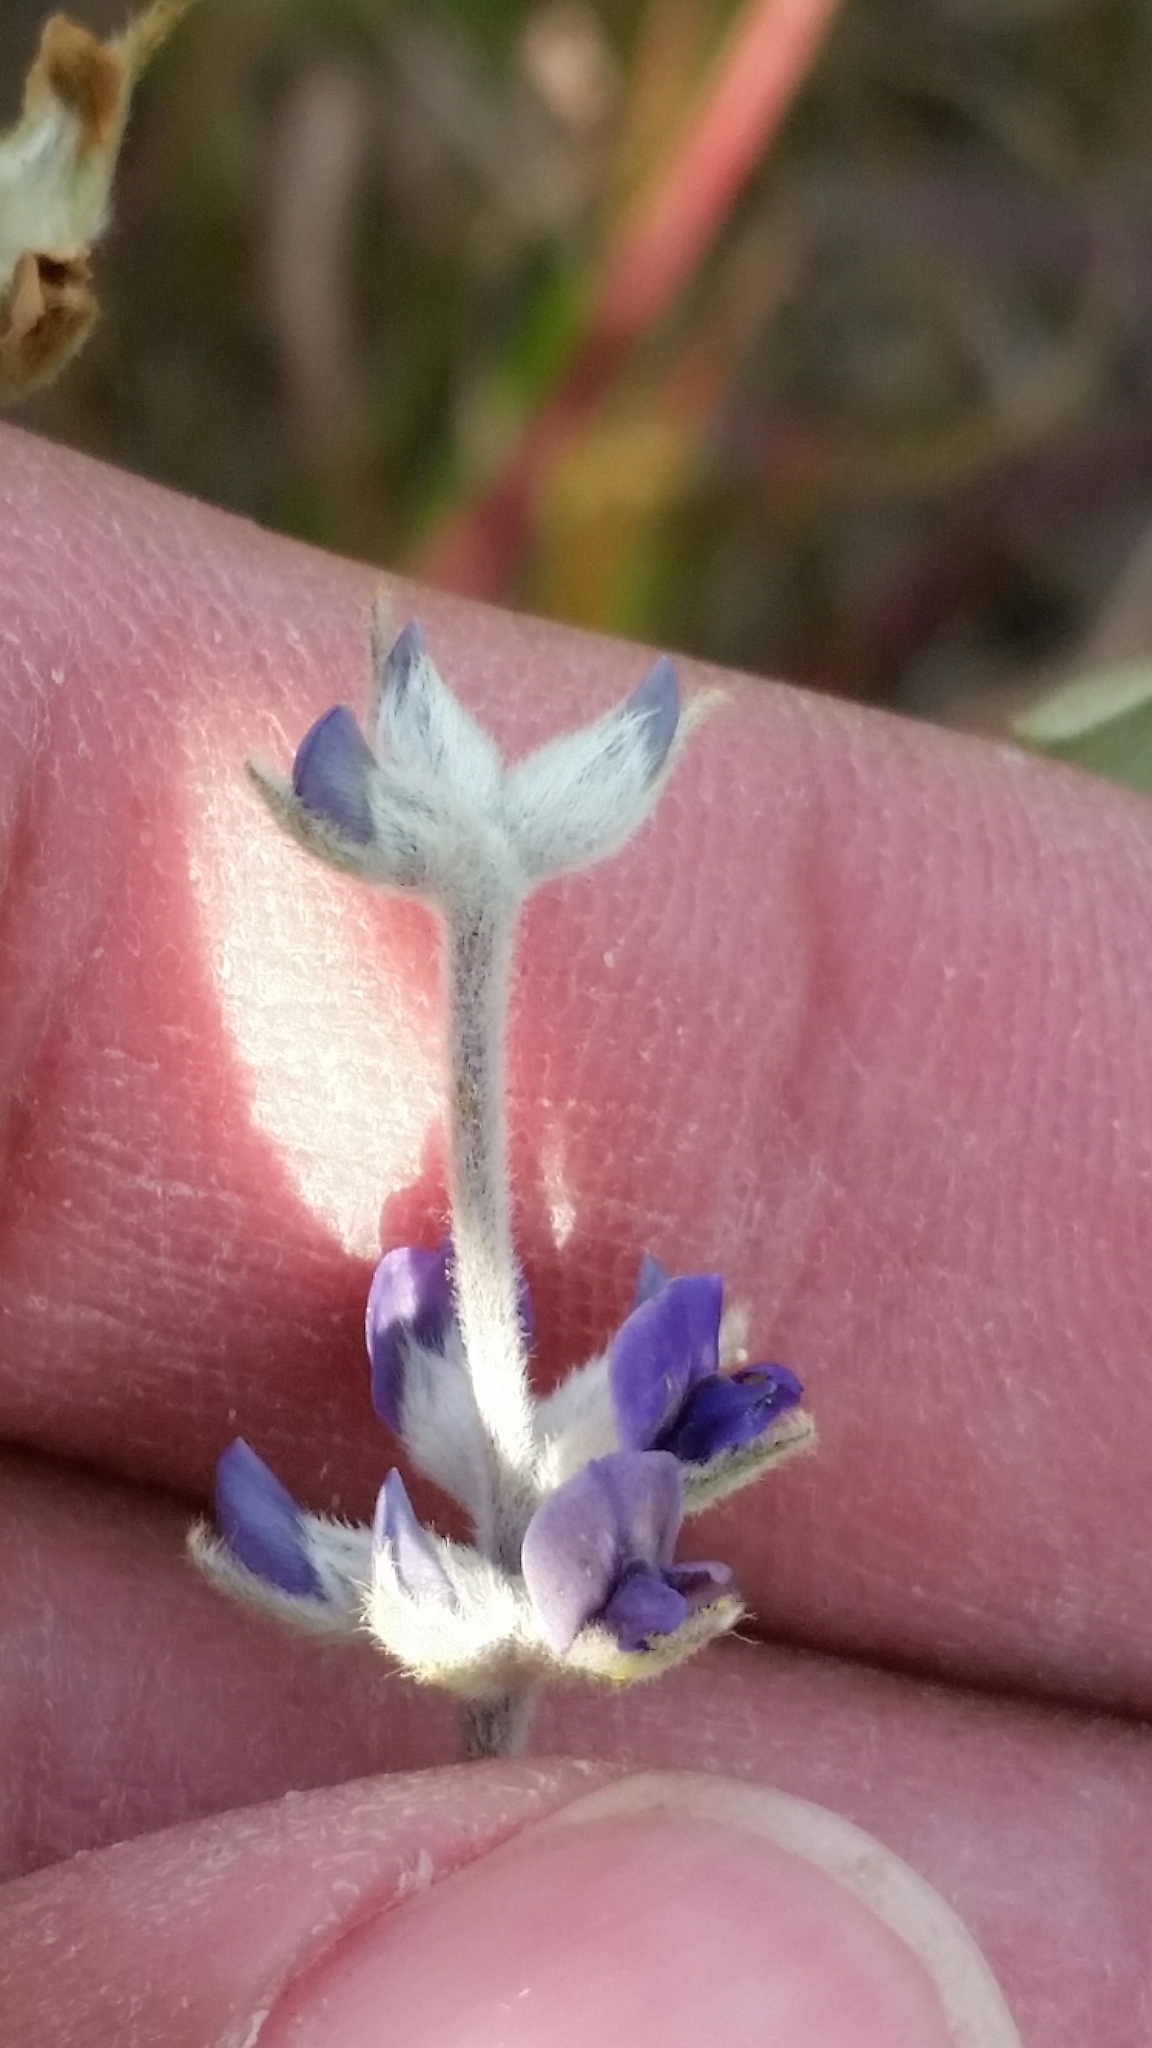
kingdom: Plantae
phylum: Tracheophyta
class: Magnoliopsida
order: Fabales
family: Fabaceae
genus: Pediomelum
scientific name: Pediomelum argophyllum
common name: Silver-leaved indian breadroot
